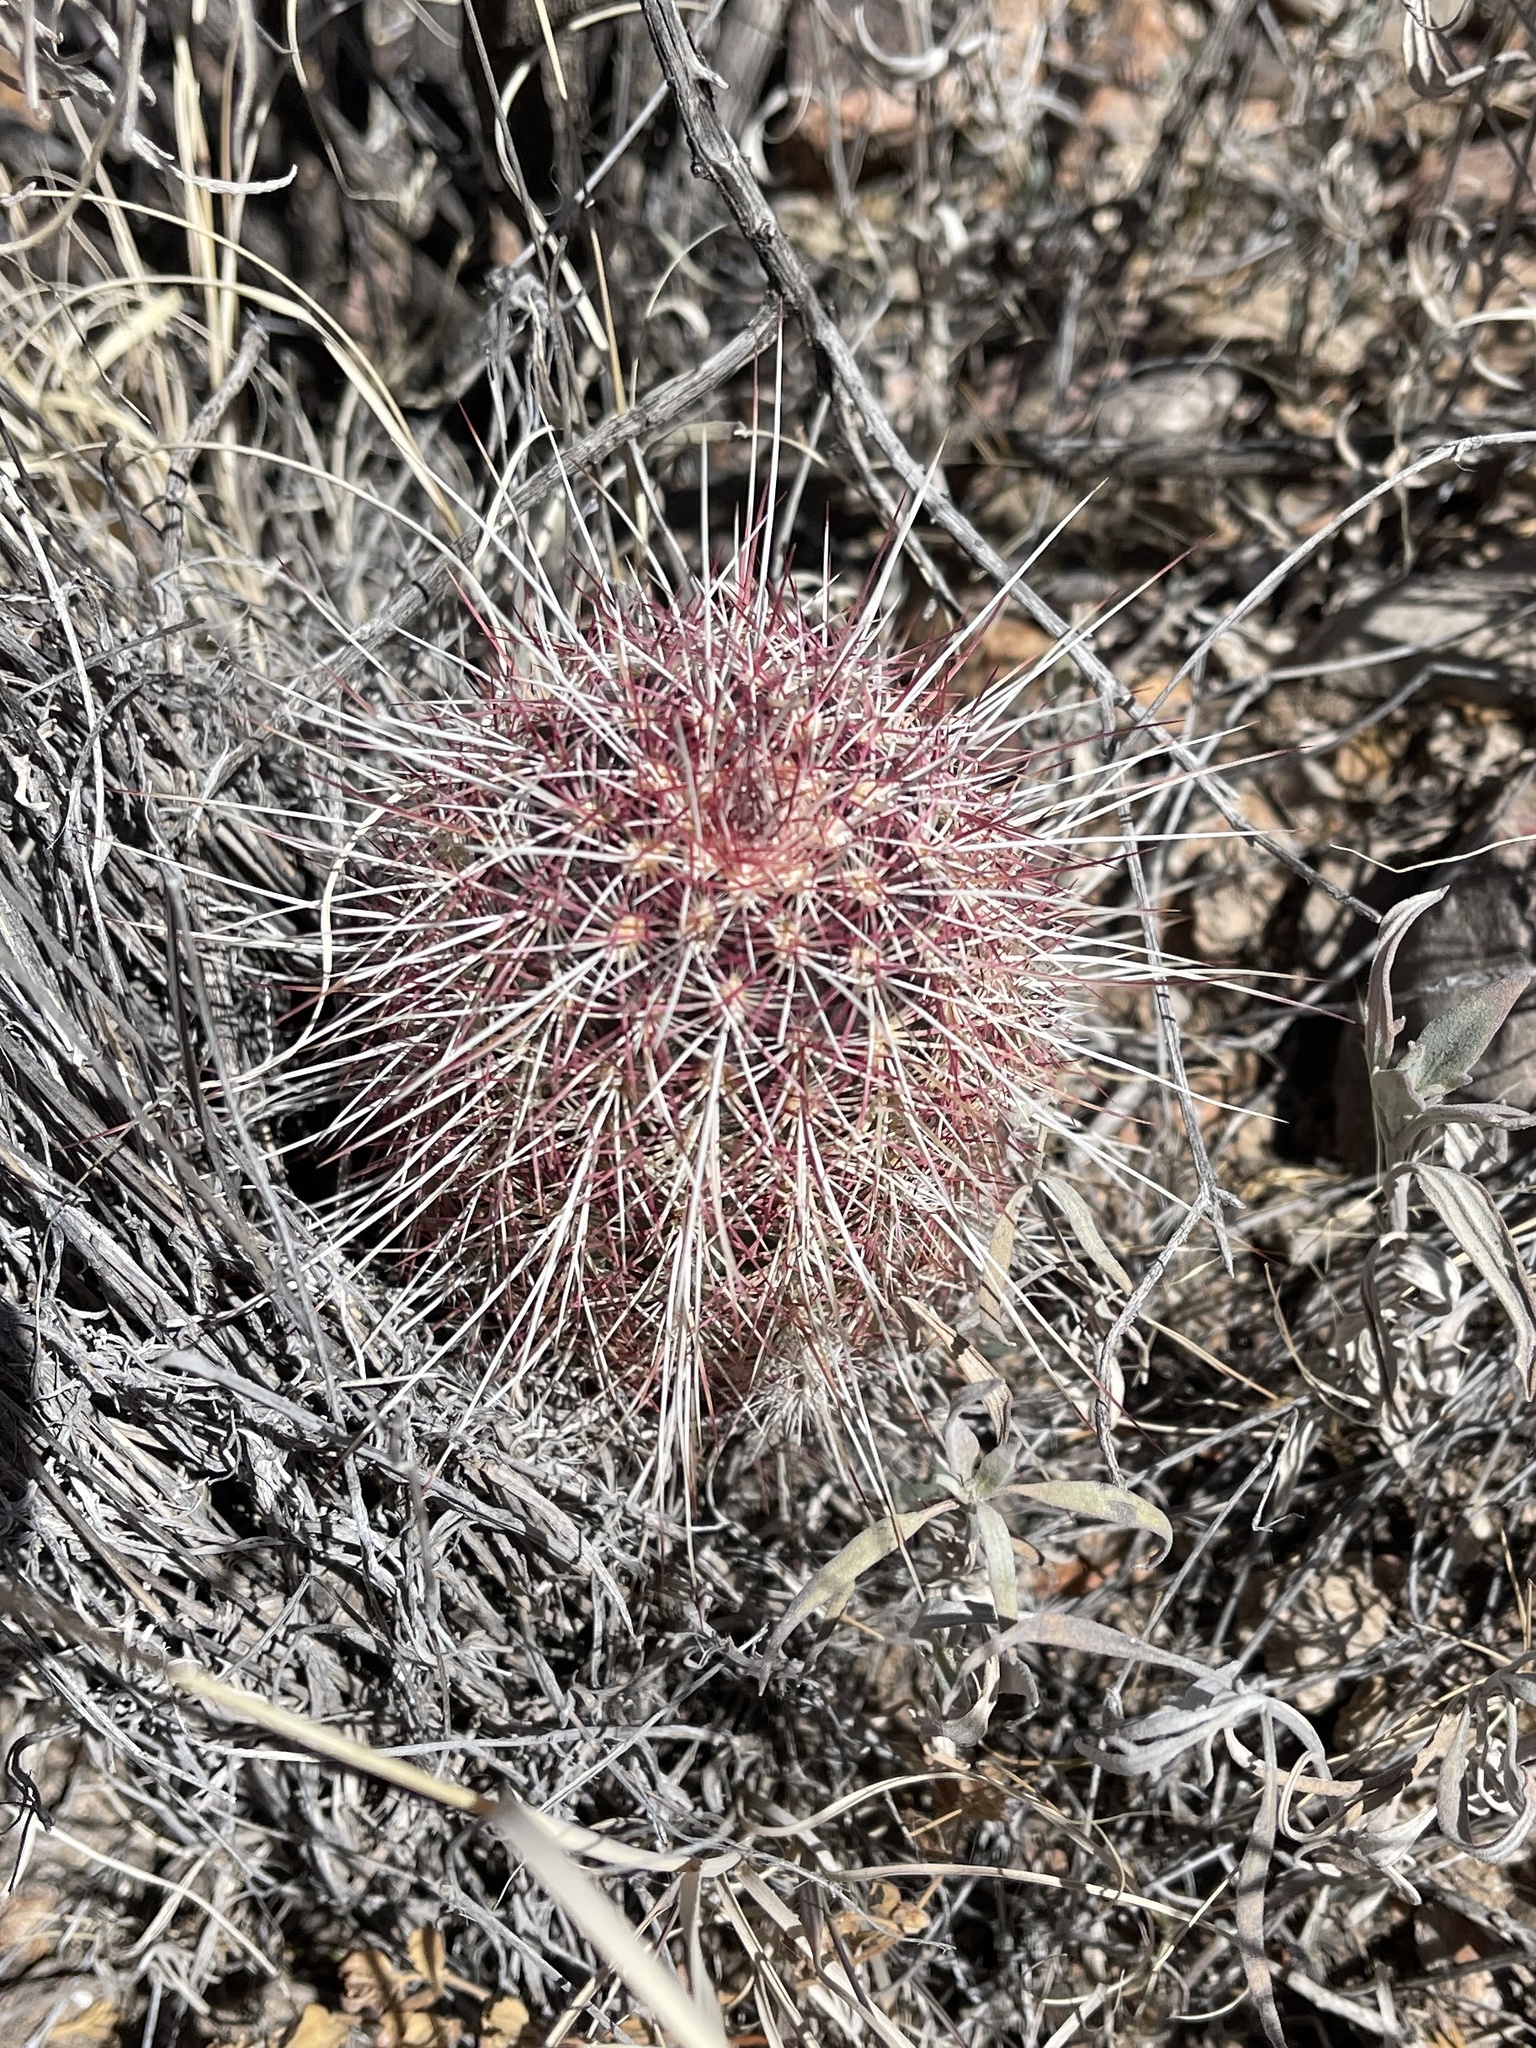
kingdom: Plantae
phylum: Tracheophyta
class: Magnoliopsida
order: Caryophyllales
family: Cactaceae
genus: Echinocereus
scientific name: Echinocereus viridiflorus
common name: Nylon hedgehog cactus
